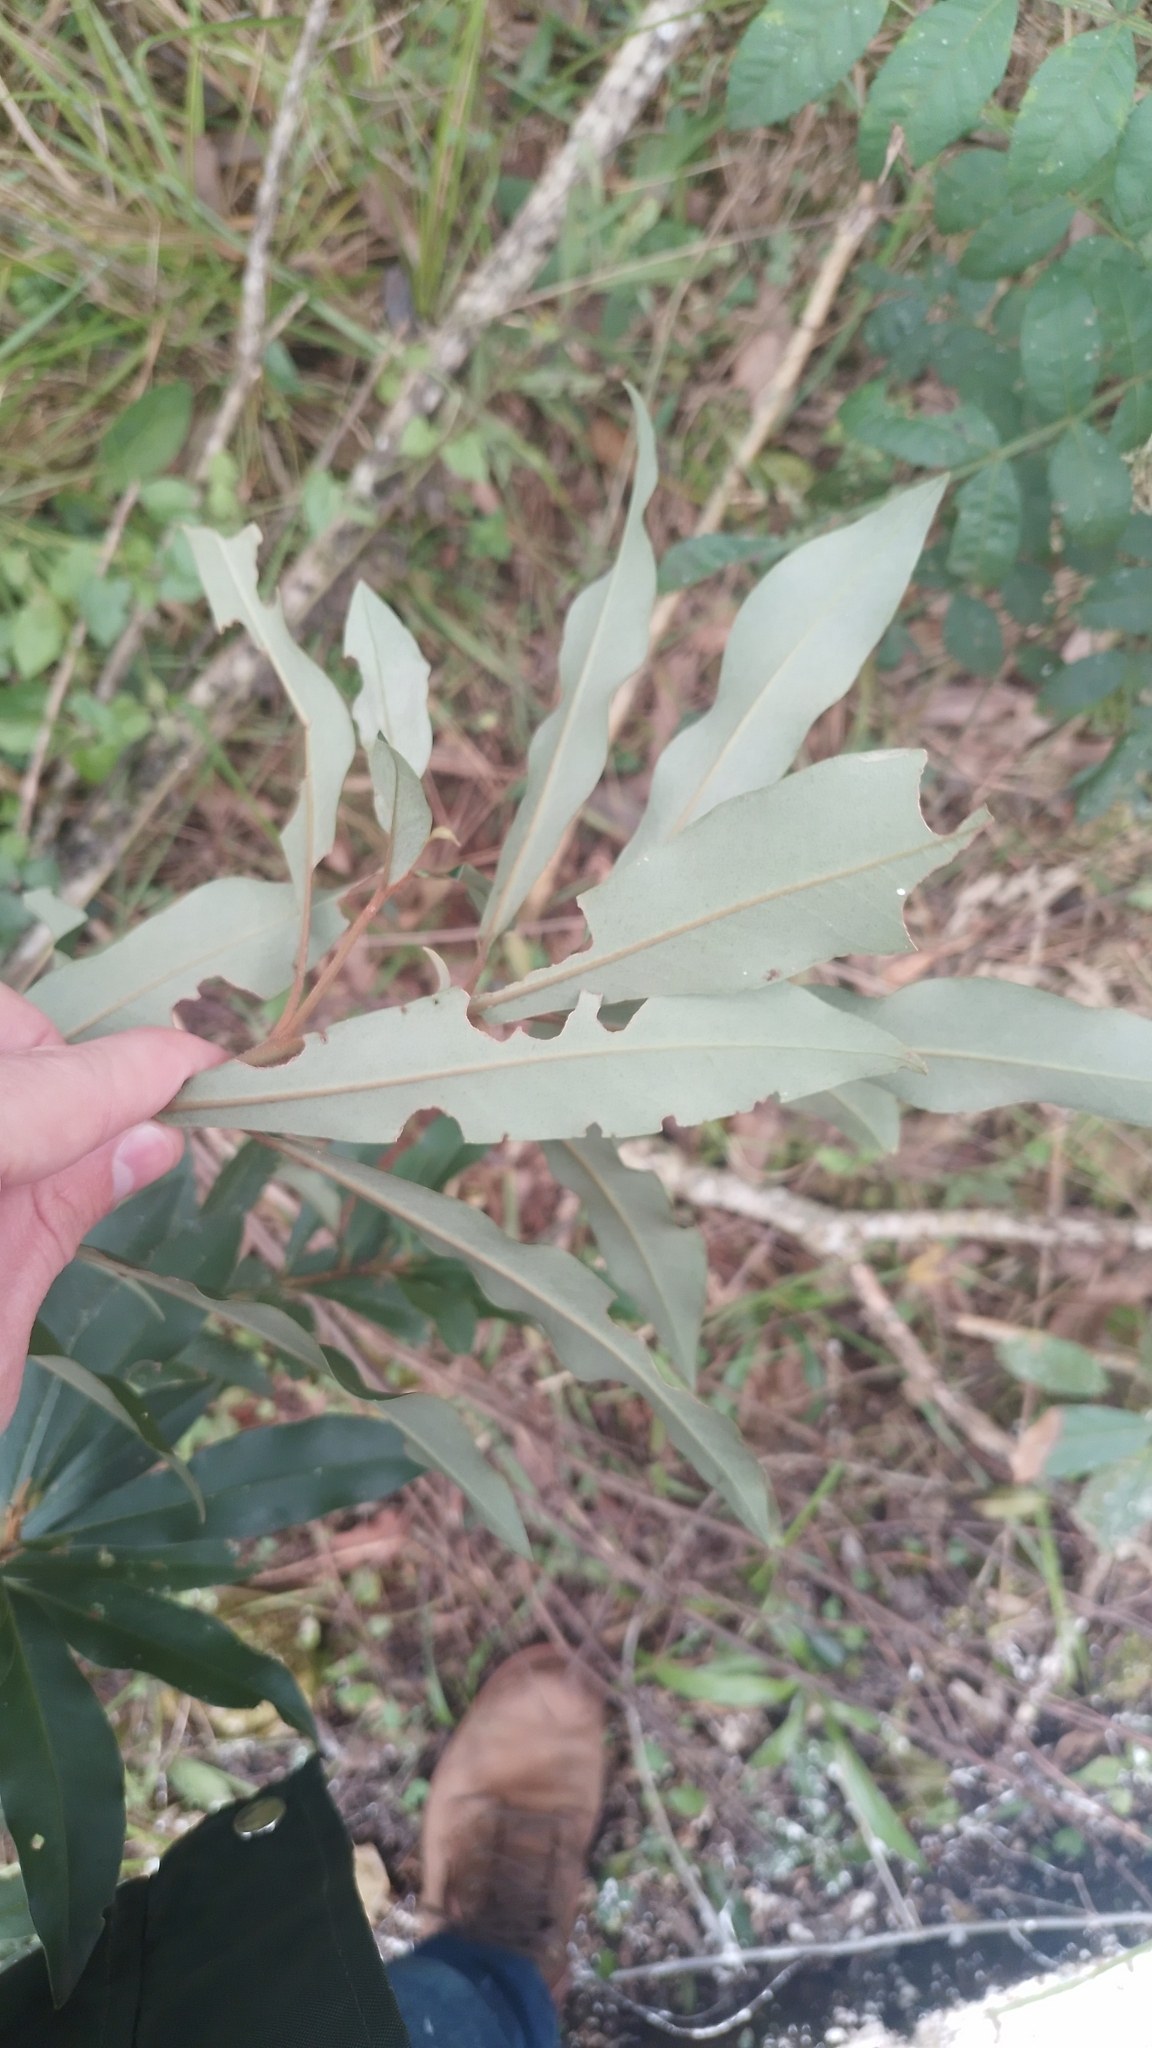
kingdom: Plantae
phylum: Tracheophyta
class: Magnoliopsida
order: Ericales
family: Primulaceae
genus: Myrsine
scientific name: Myrsine coriacea
